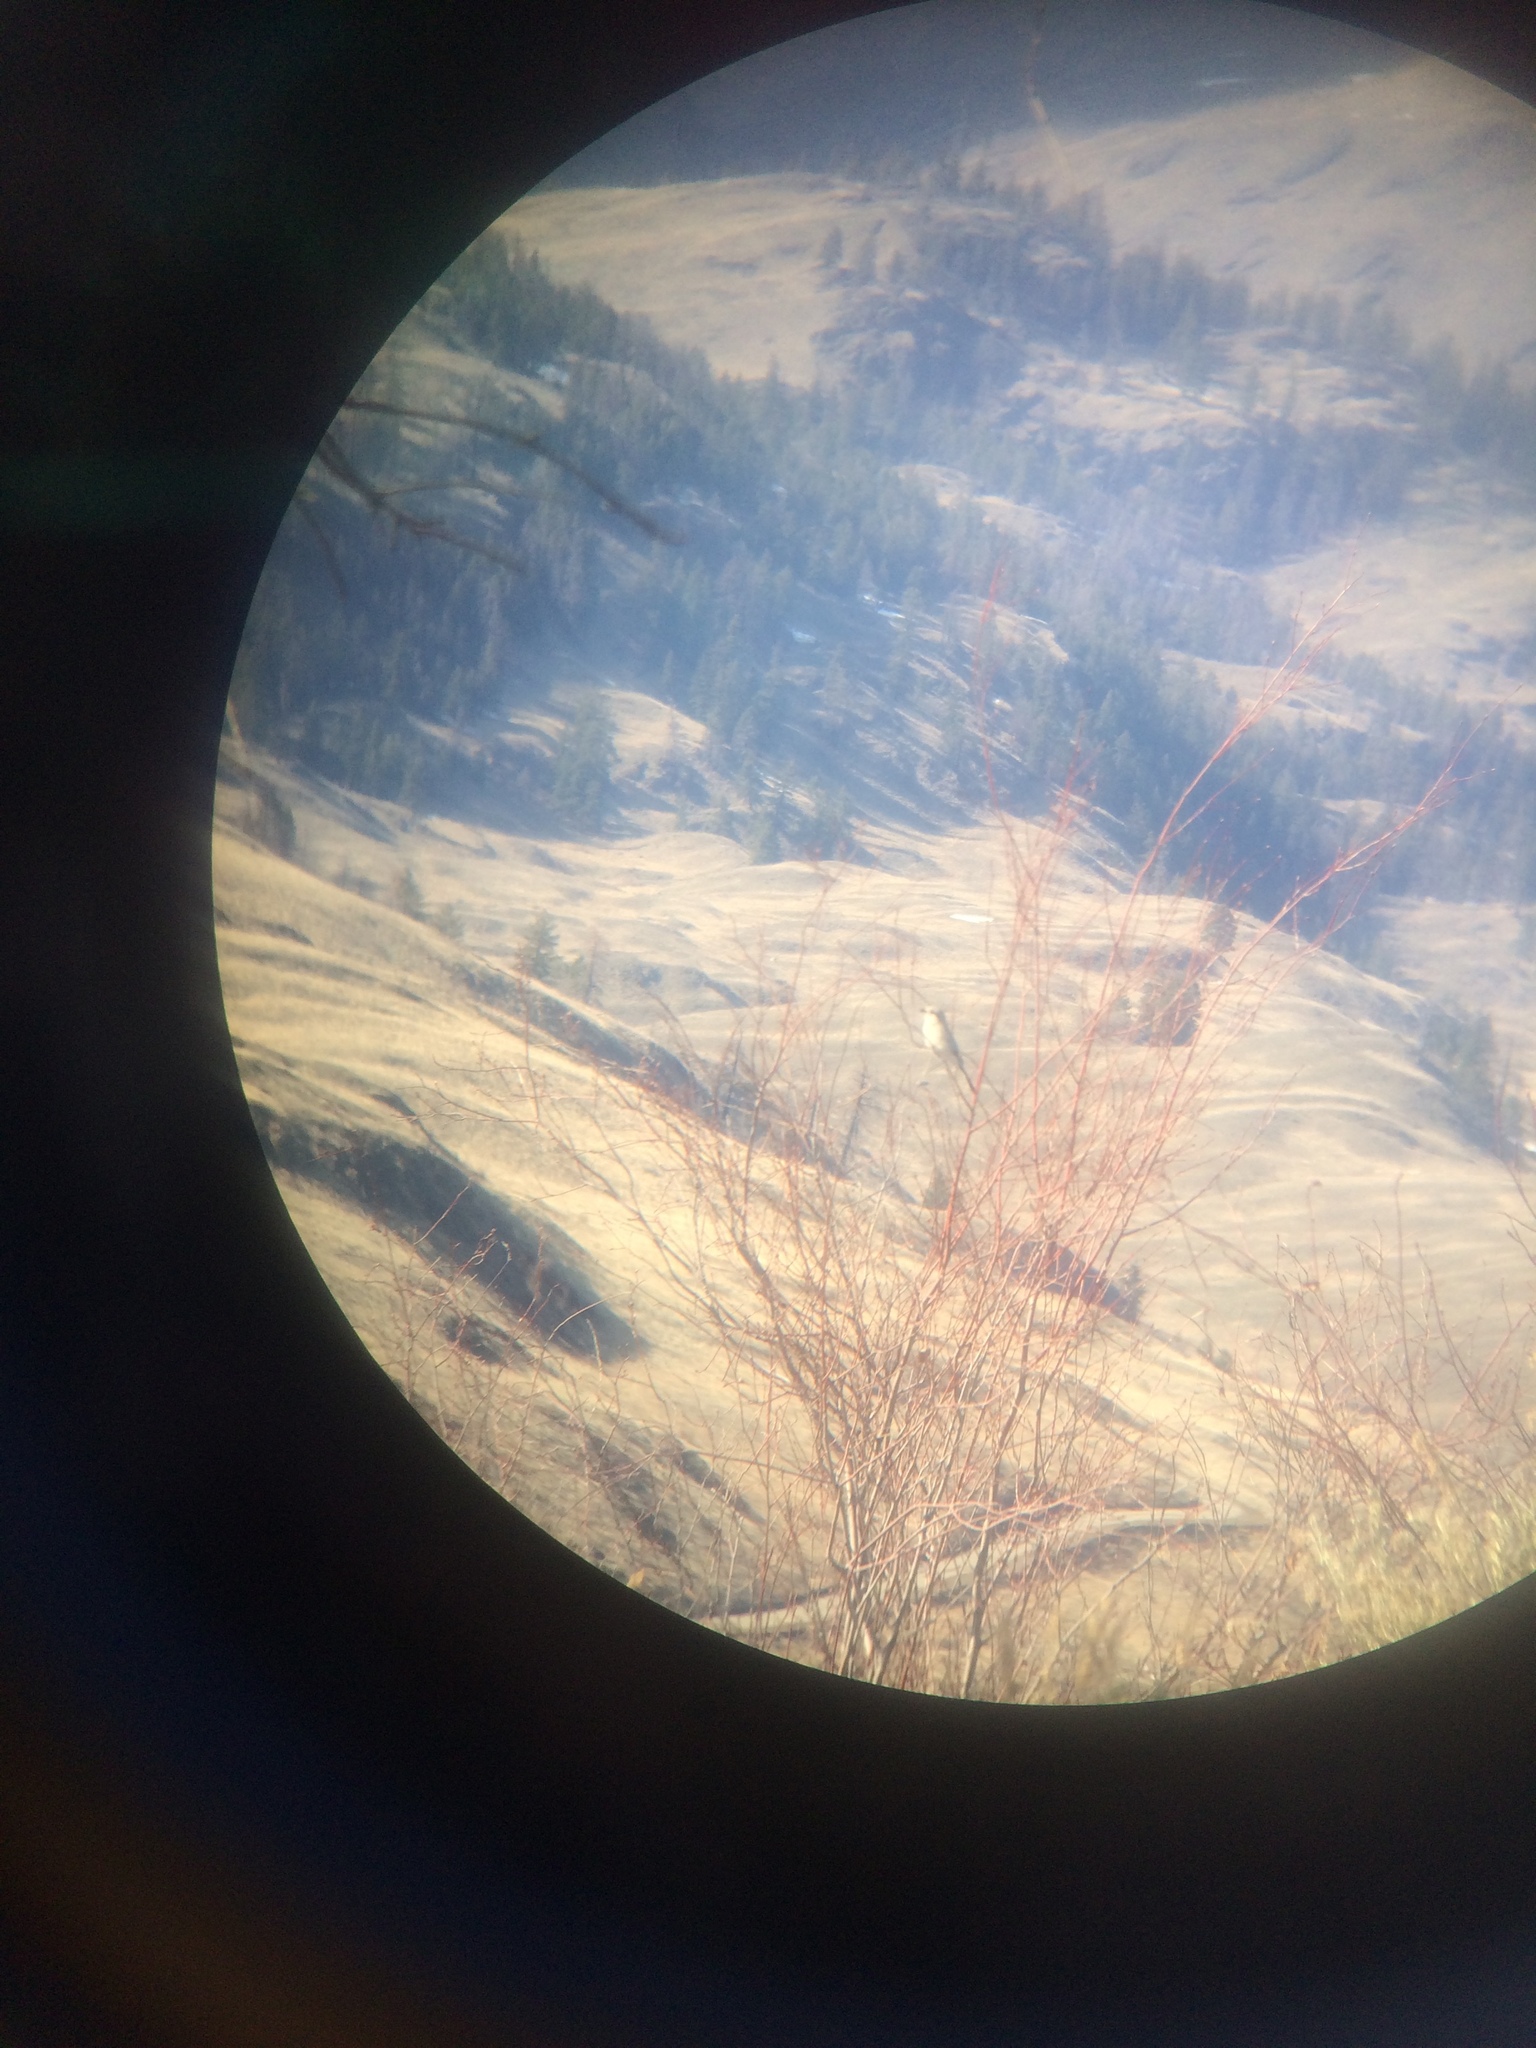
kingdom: Animalia
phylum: Chordata
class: Aves
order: Passeriformes
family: Laniidae
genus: Lanius
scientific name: Lanius borealis
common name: Northern shrike
